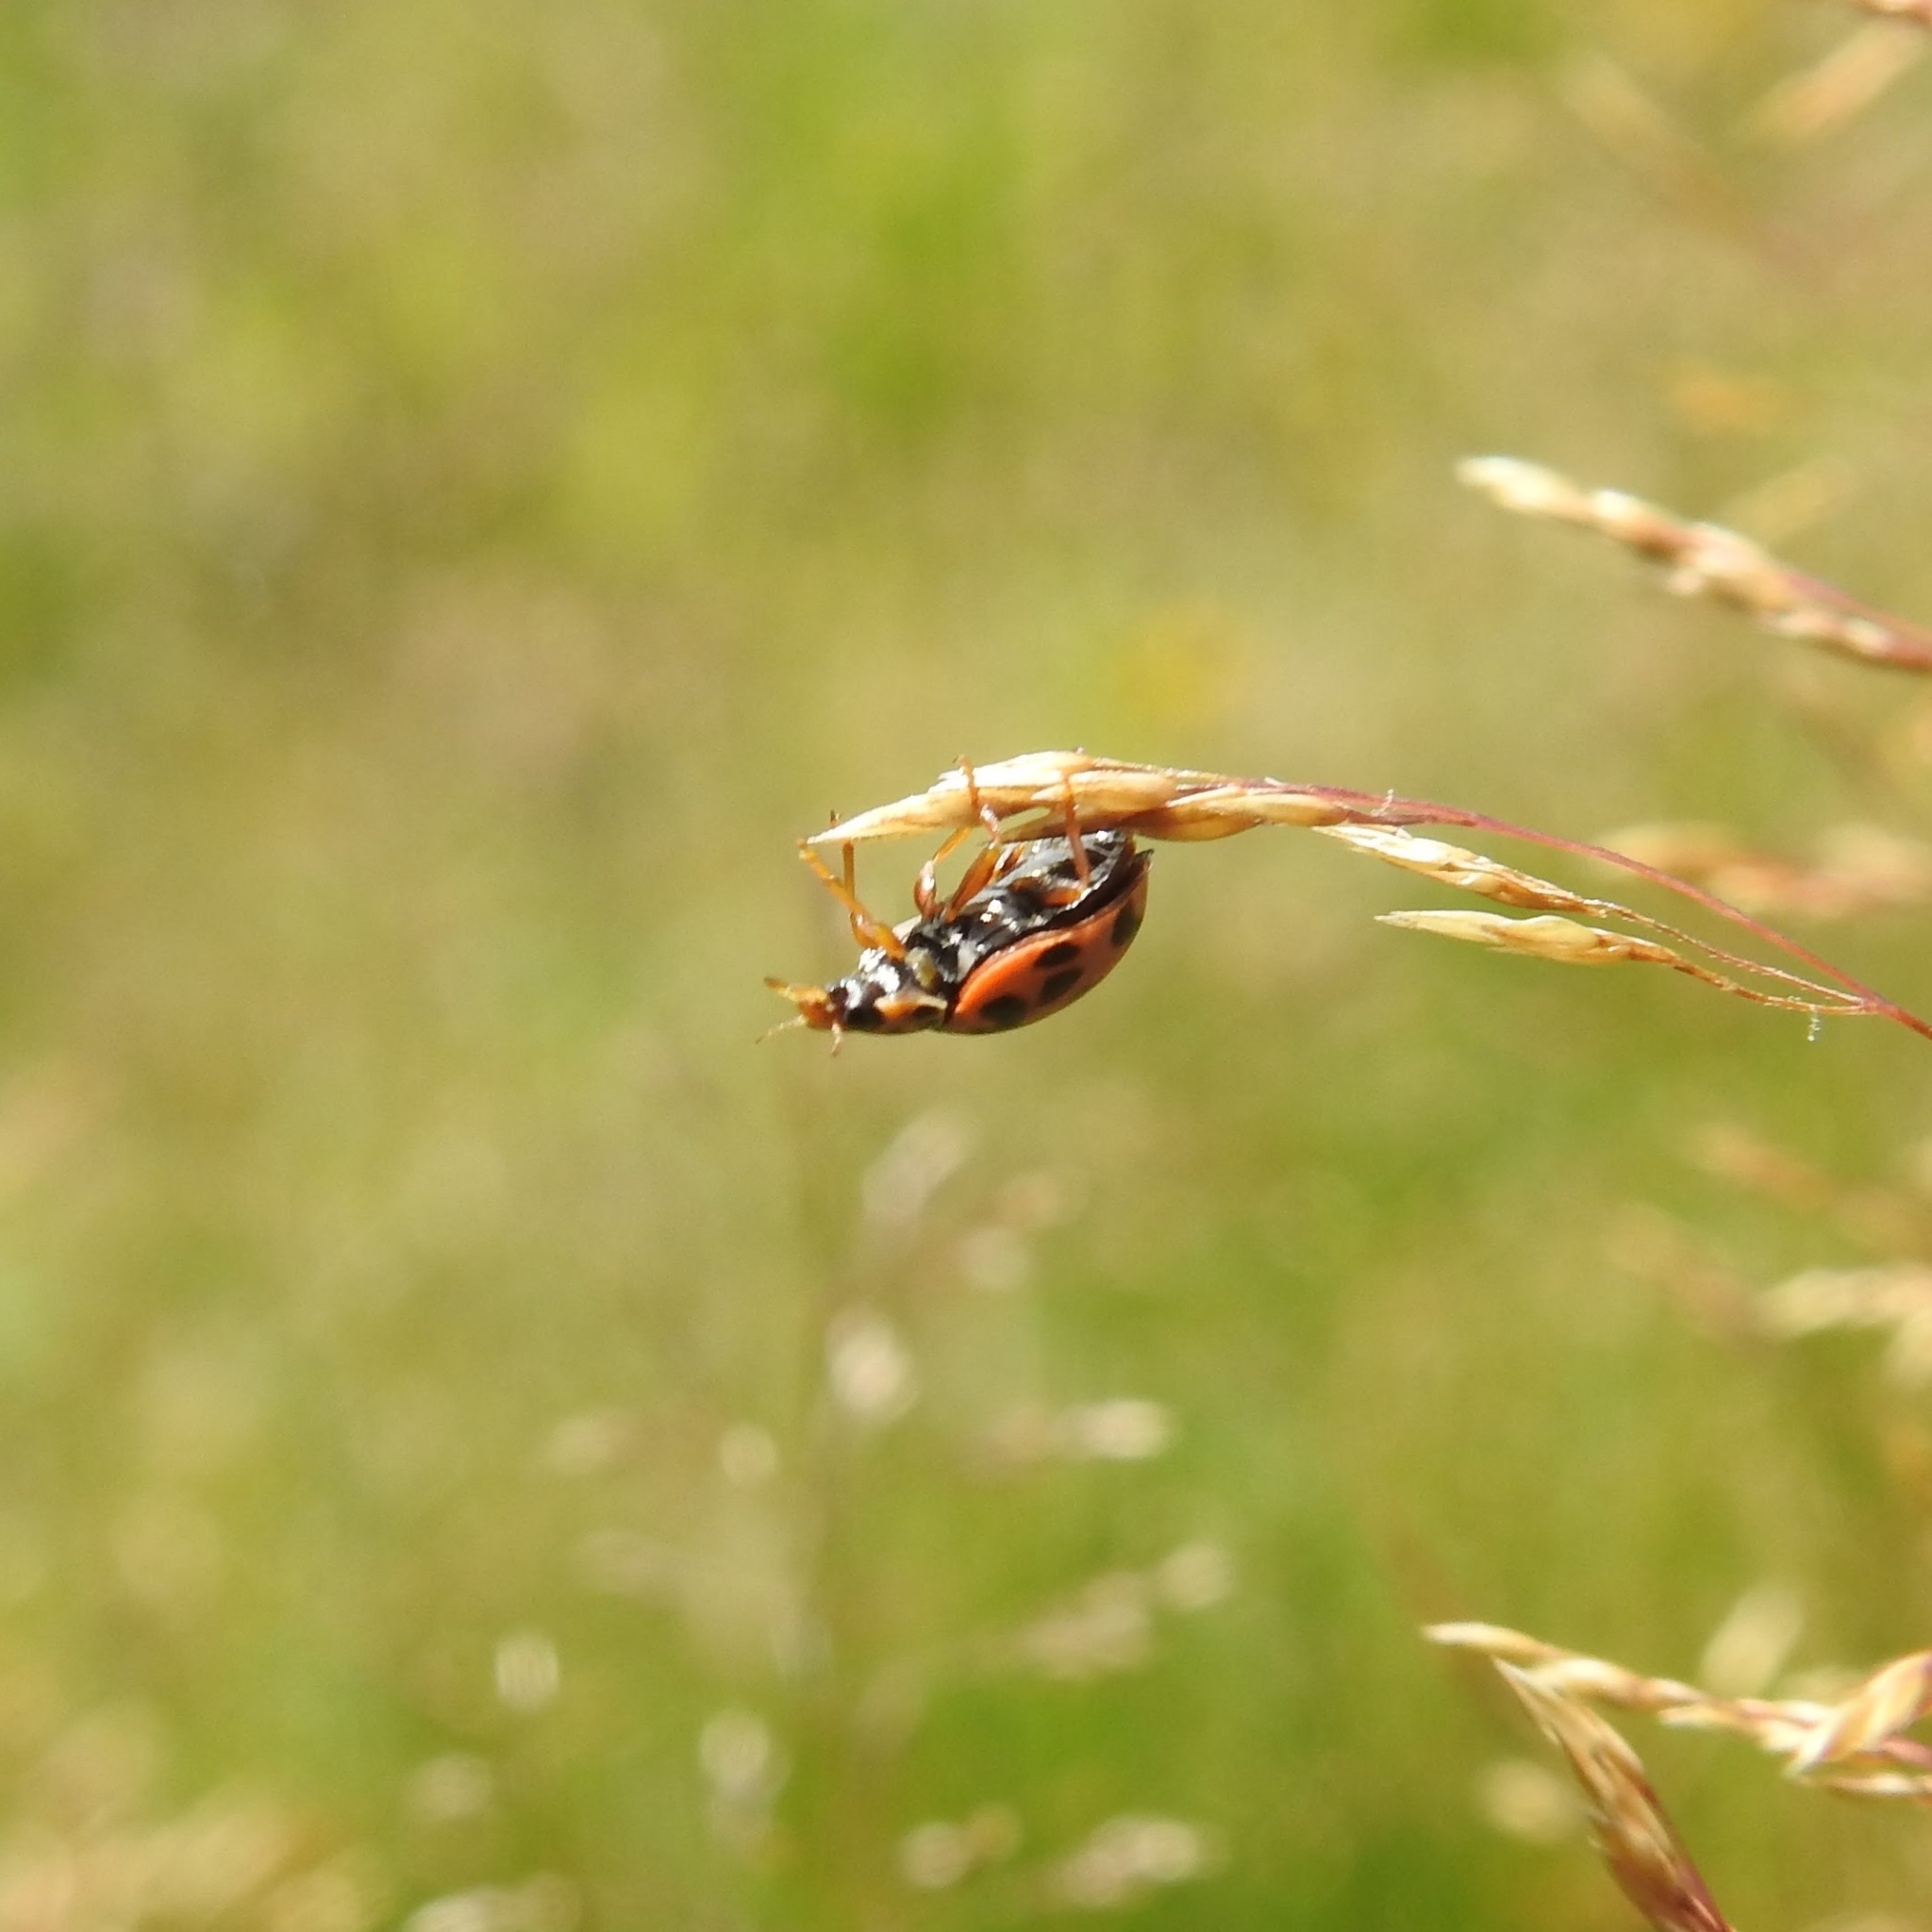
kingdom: Animalia
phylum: Arthropoda
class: Insecta
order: Coleoptera
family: Coccinellidae
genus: Oenopia
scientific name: Oenopia conglobata
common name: Ladybird beetle
